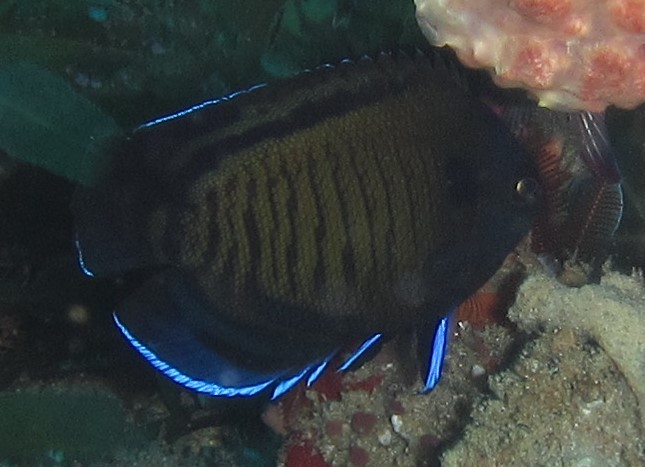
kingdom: Animalia
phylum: Chordata
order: Perciformes
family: Pomacanthidae
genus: Centropyge
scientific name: Centropyge multispinis
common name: Many-spined angelfish
